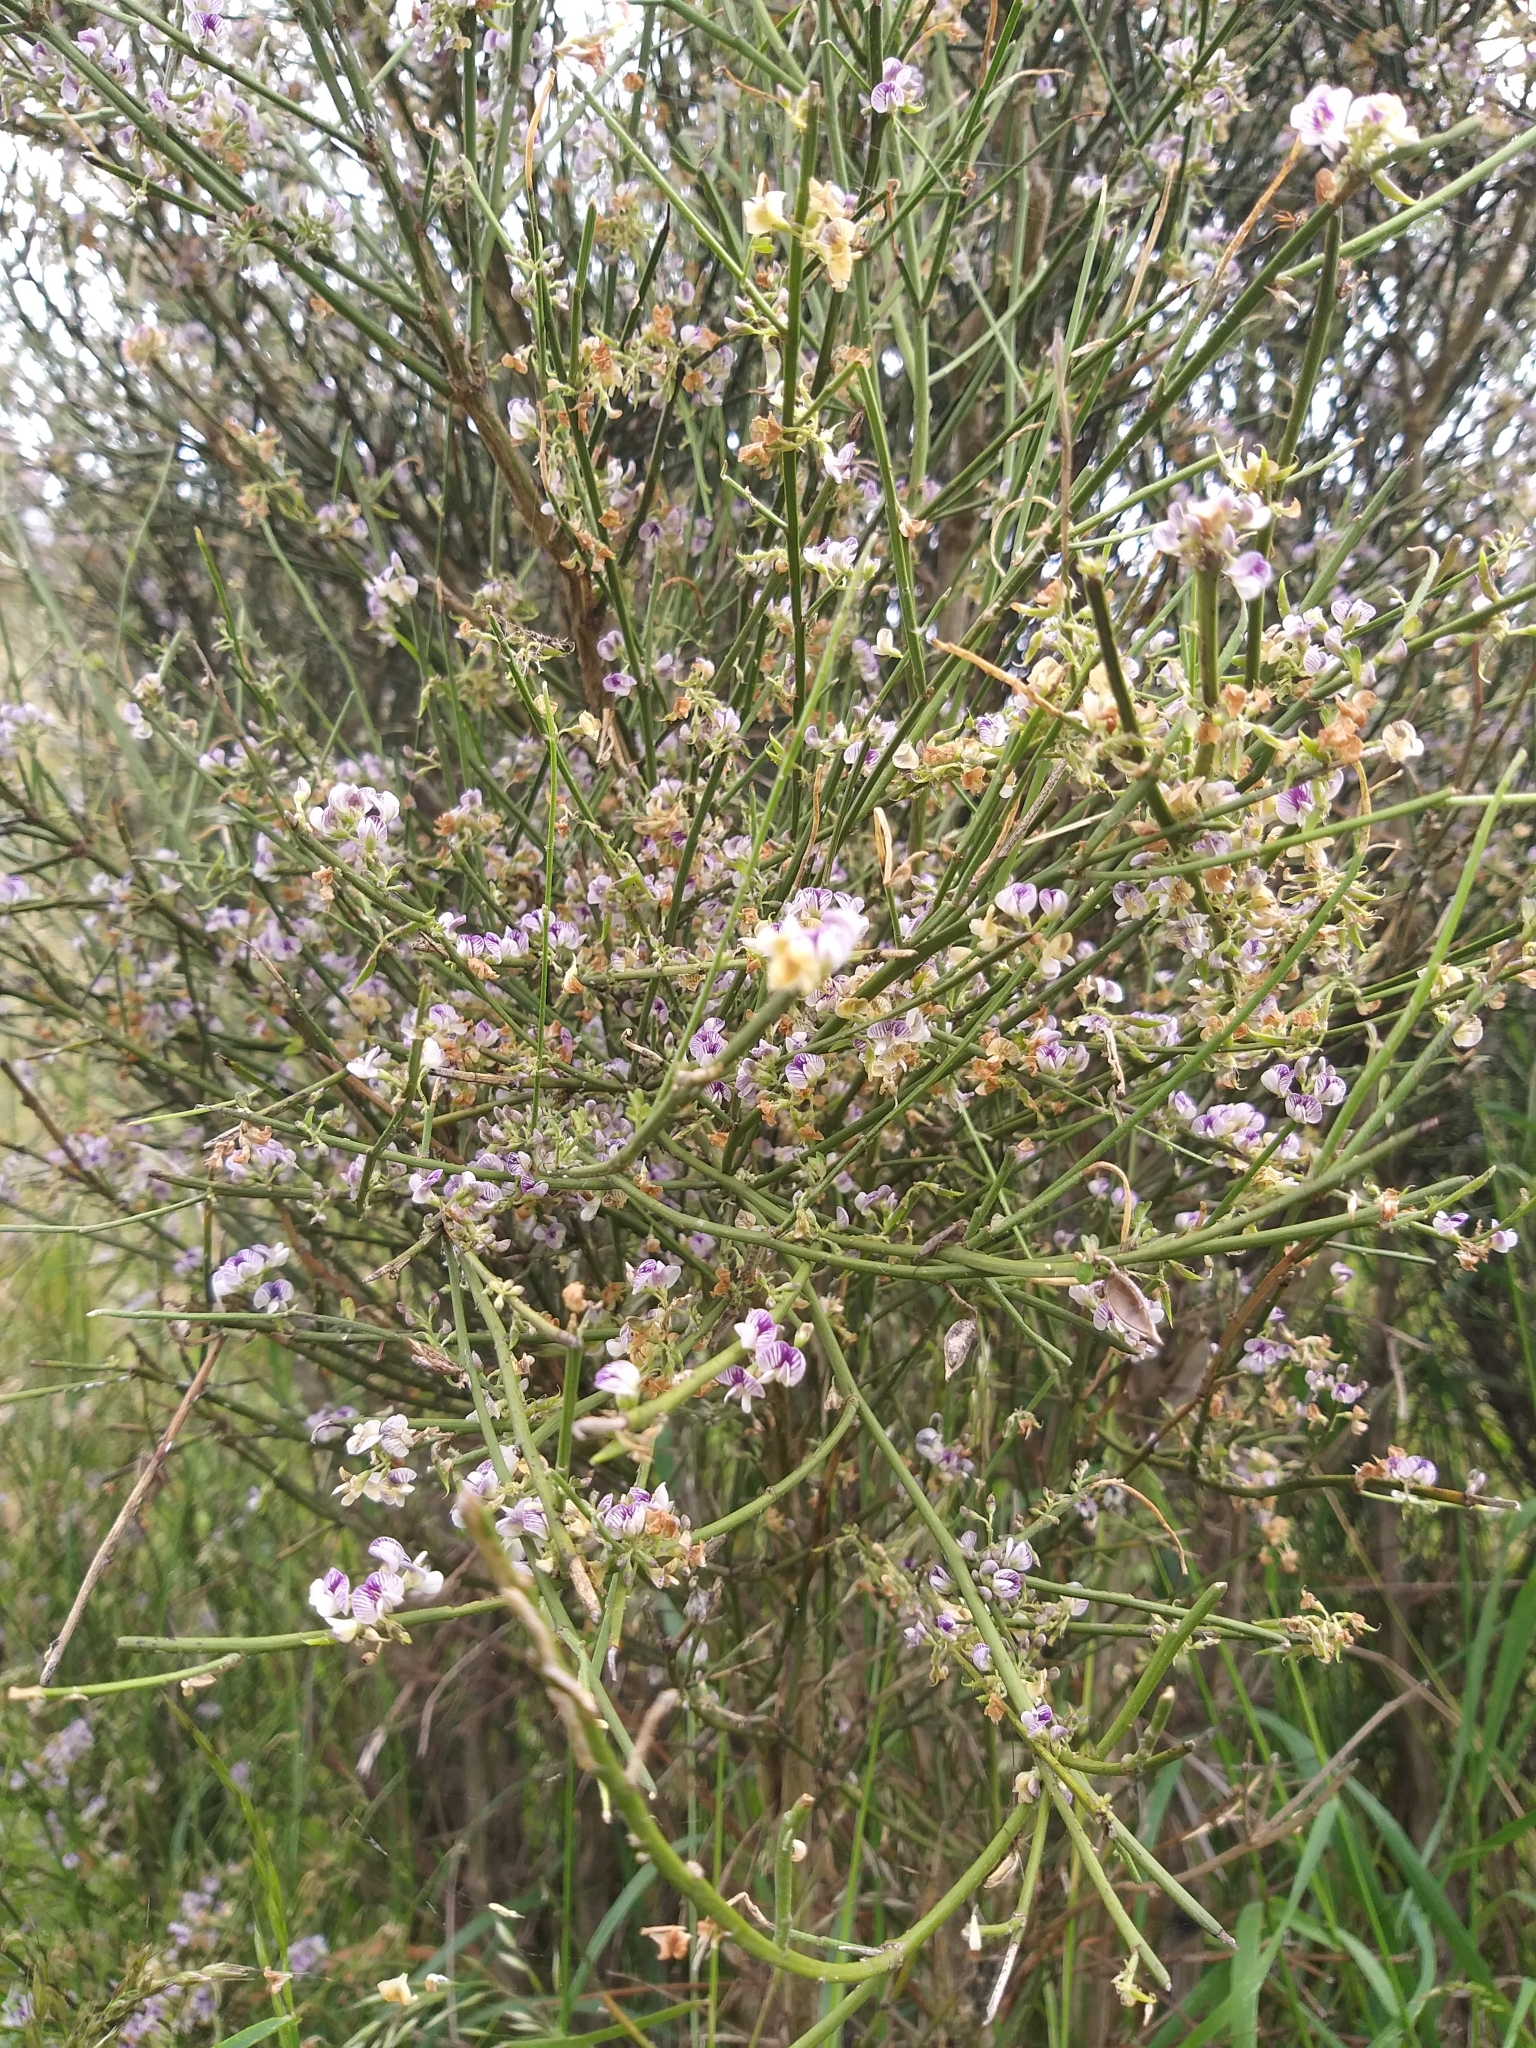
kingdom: Plantae
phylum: Tracheophyta
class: Magnoliopsida
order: Fabales
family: Fabaceae
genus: Carmichaelia
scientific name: Carmichaelia australis
